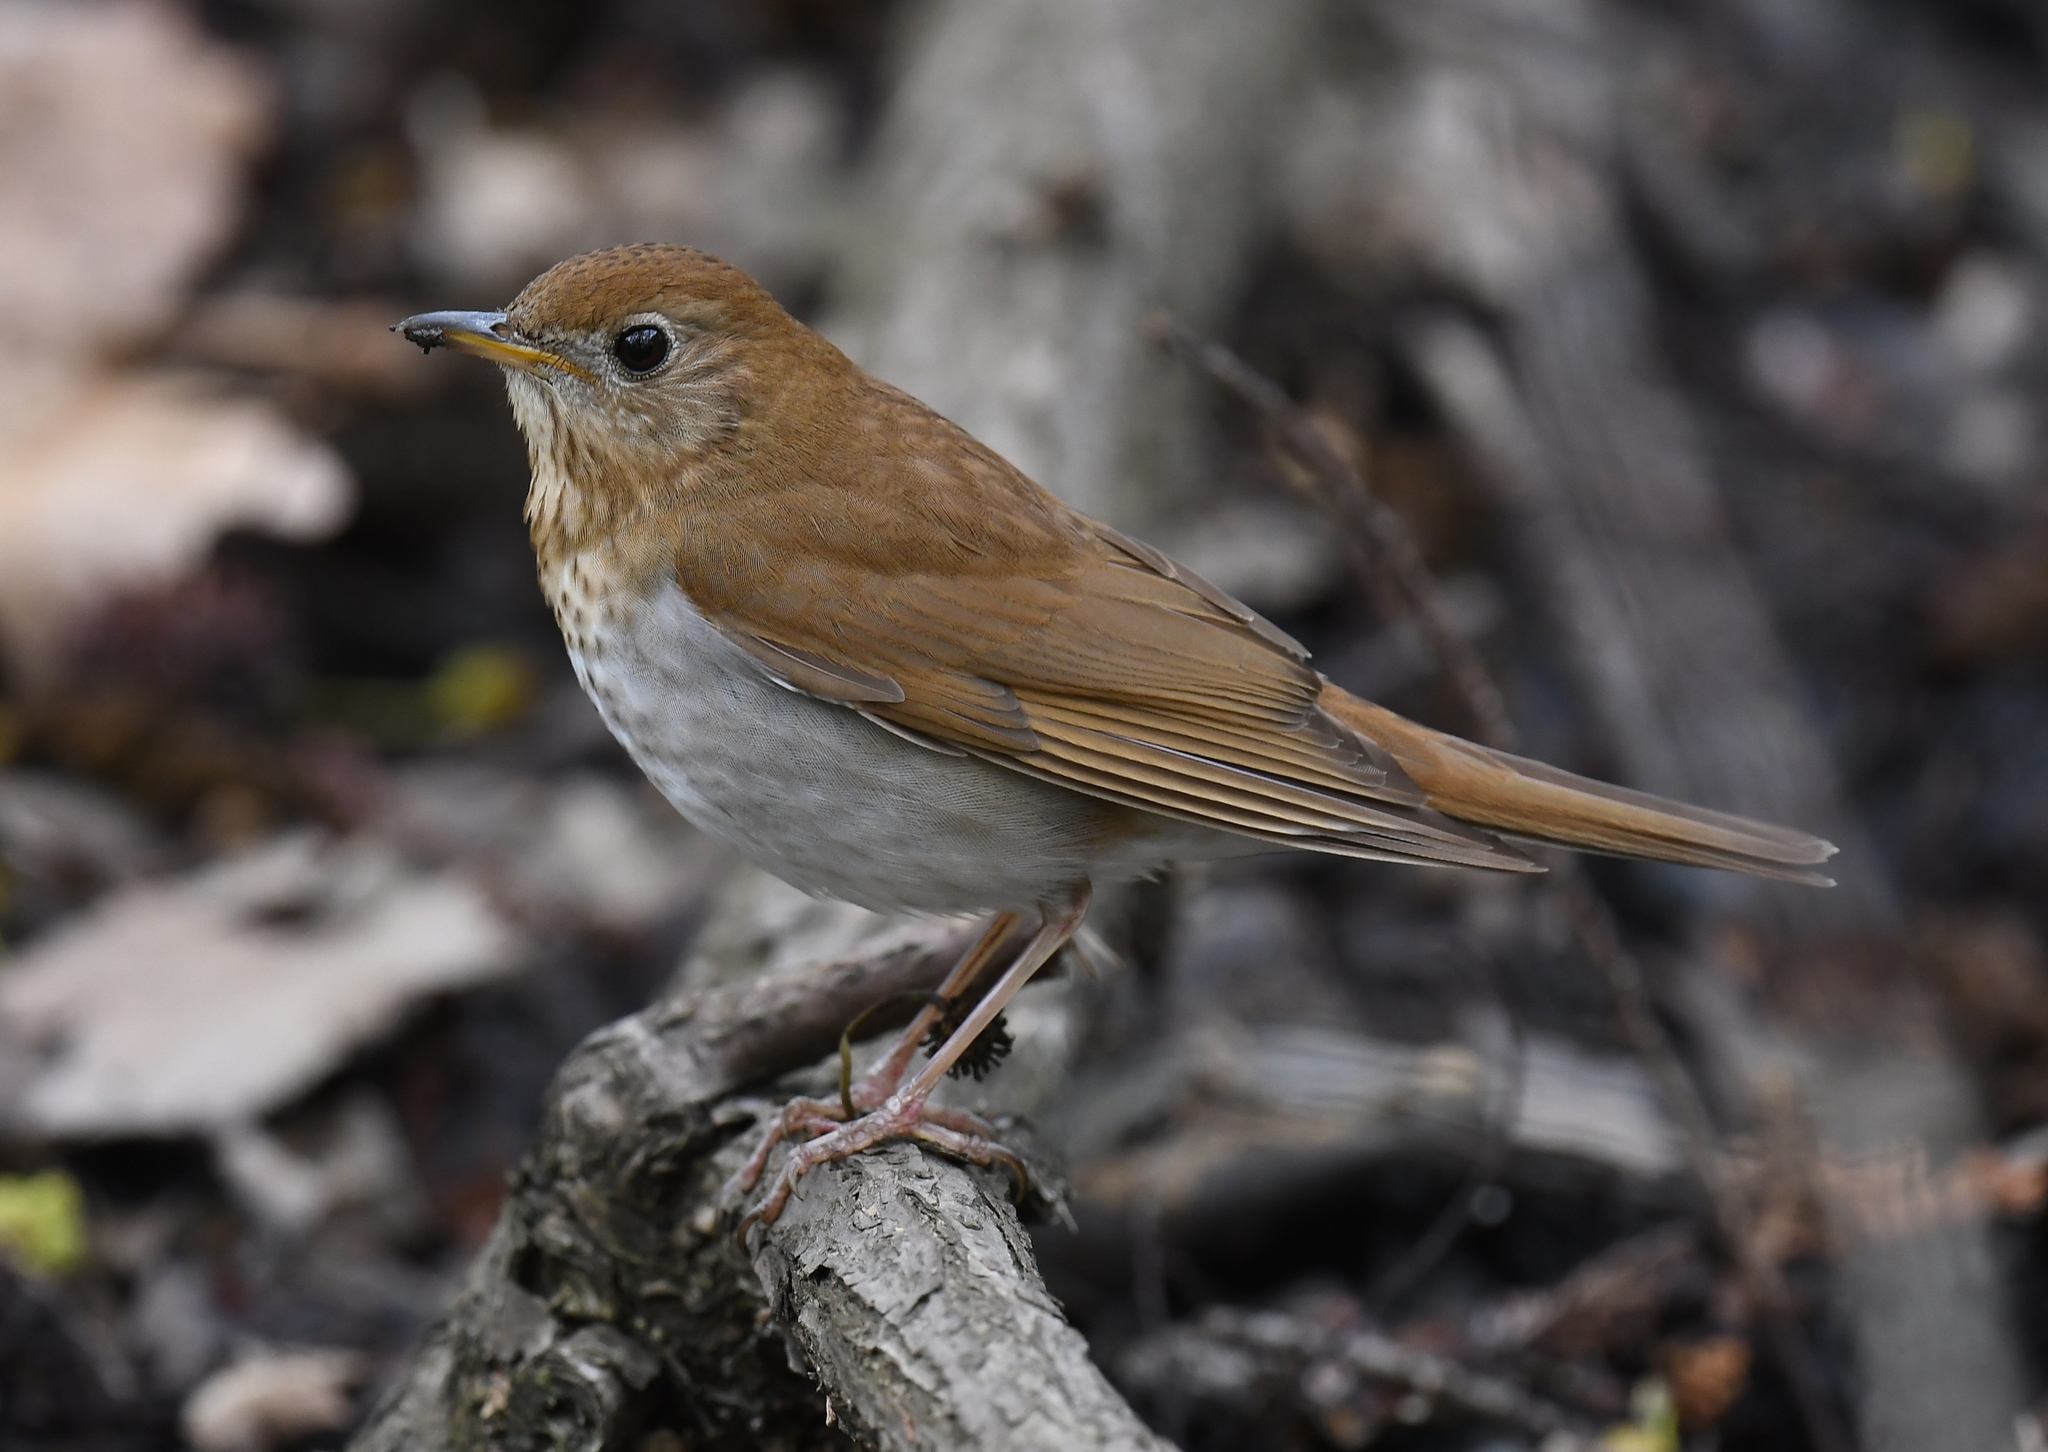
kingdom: Animalia
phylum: Chordata
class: Aves
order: Passeriformes
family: Turdidae
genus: Catharus
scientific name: Catharus fuscescens
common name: Veery
